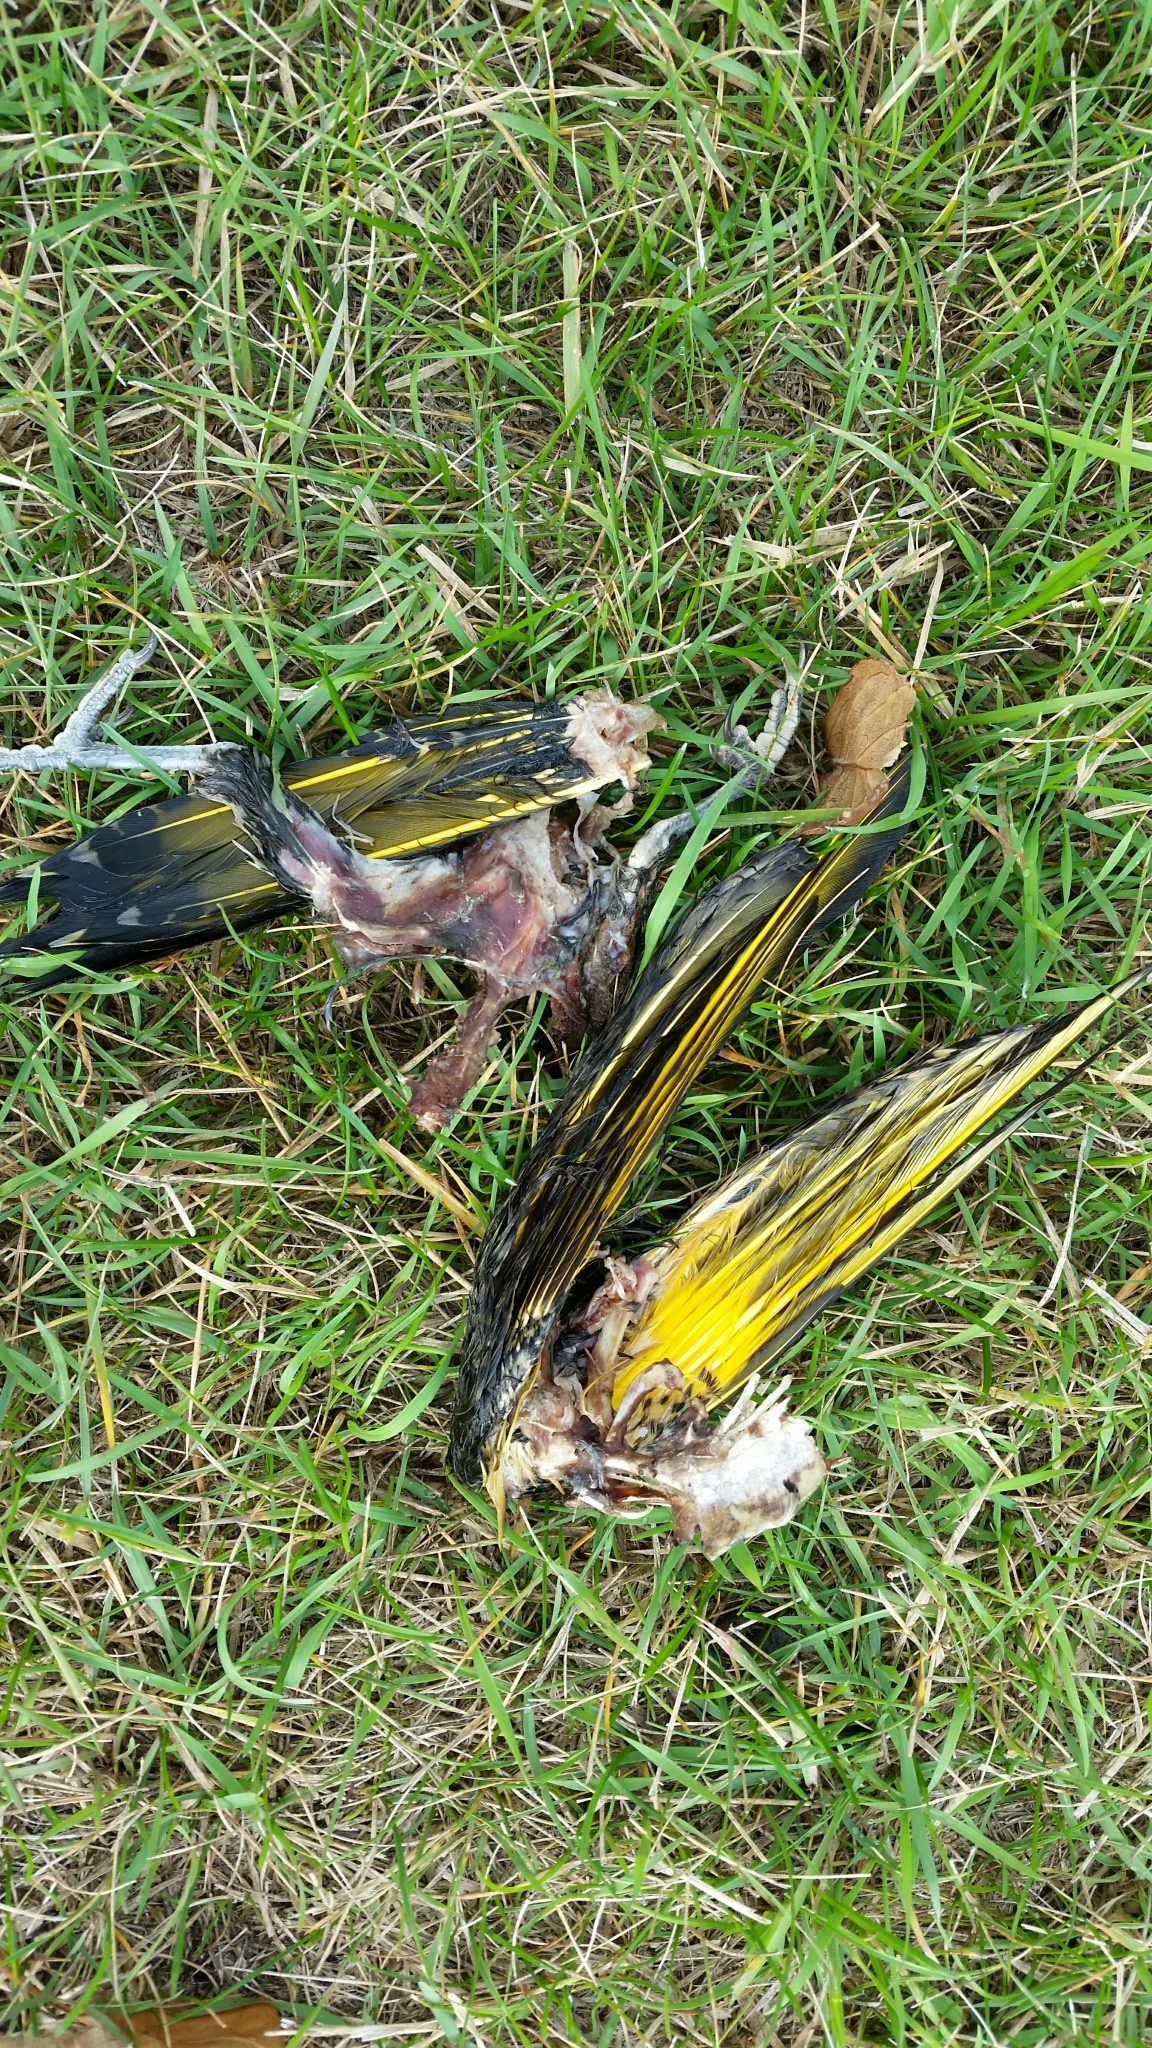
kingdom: Animalia
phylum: Chordata
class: Aves
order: Piciformes
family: Picidae
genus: Colaptes
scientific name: Colaptes auratus
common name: Northern flicker
